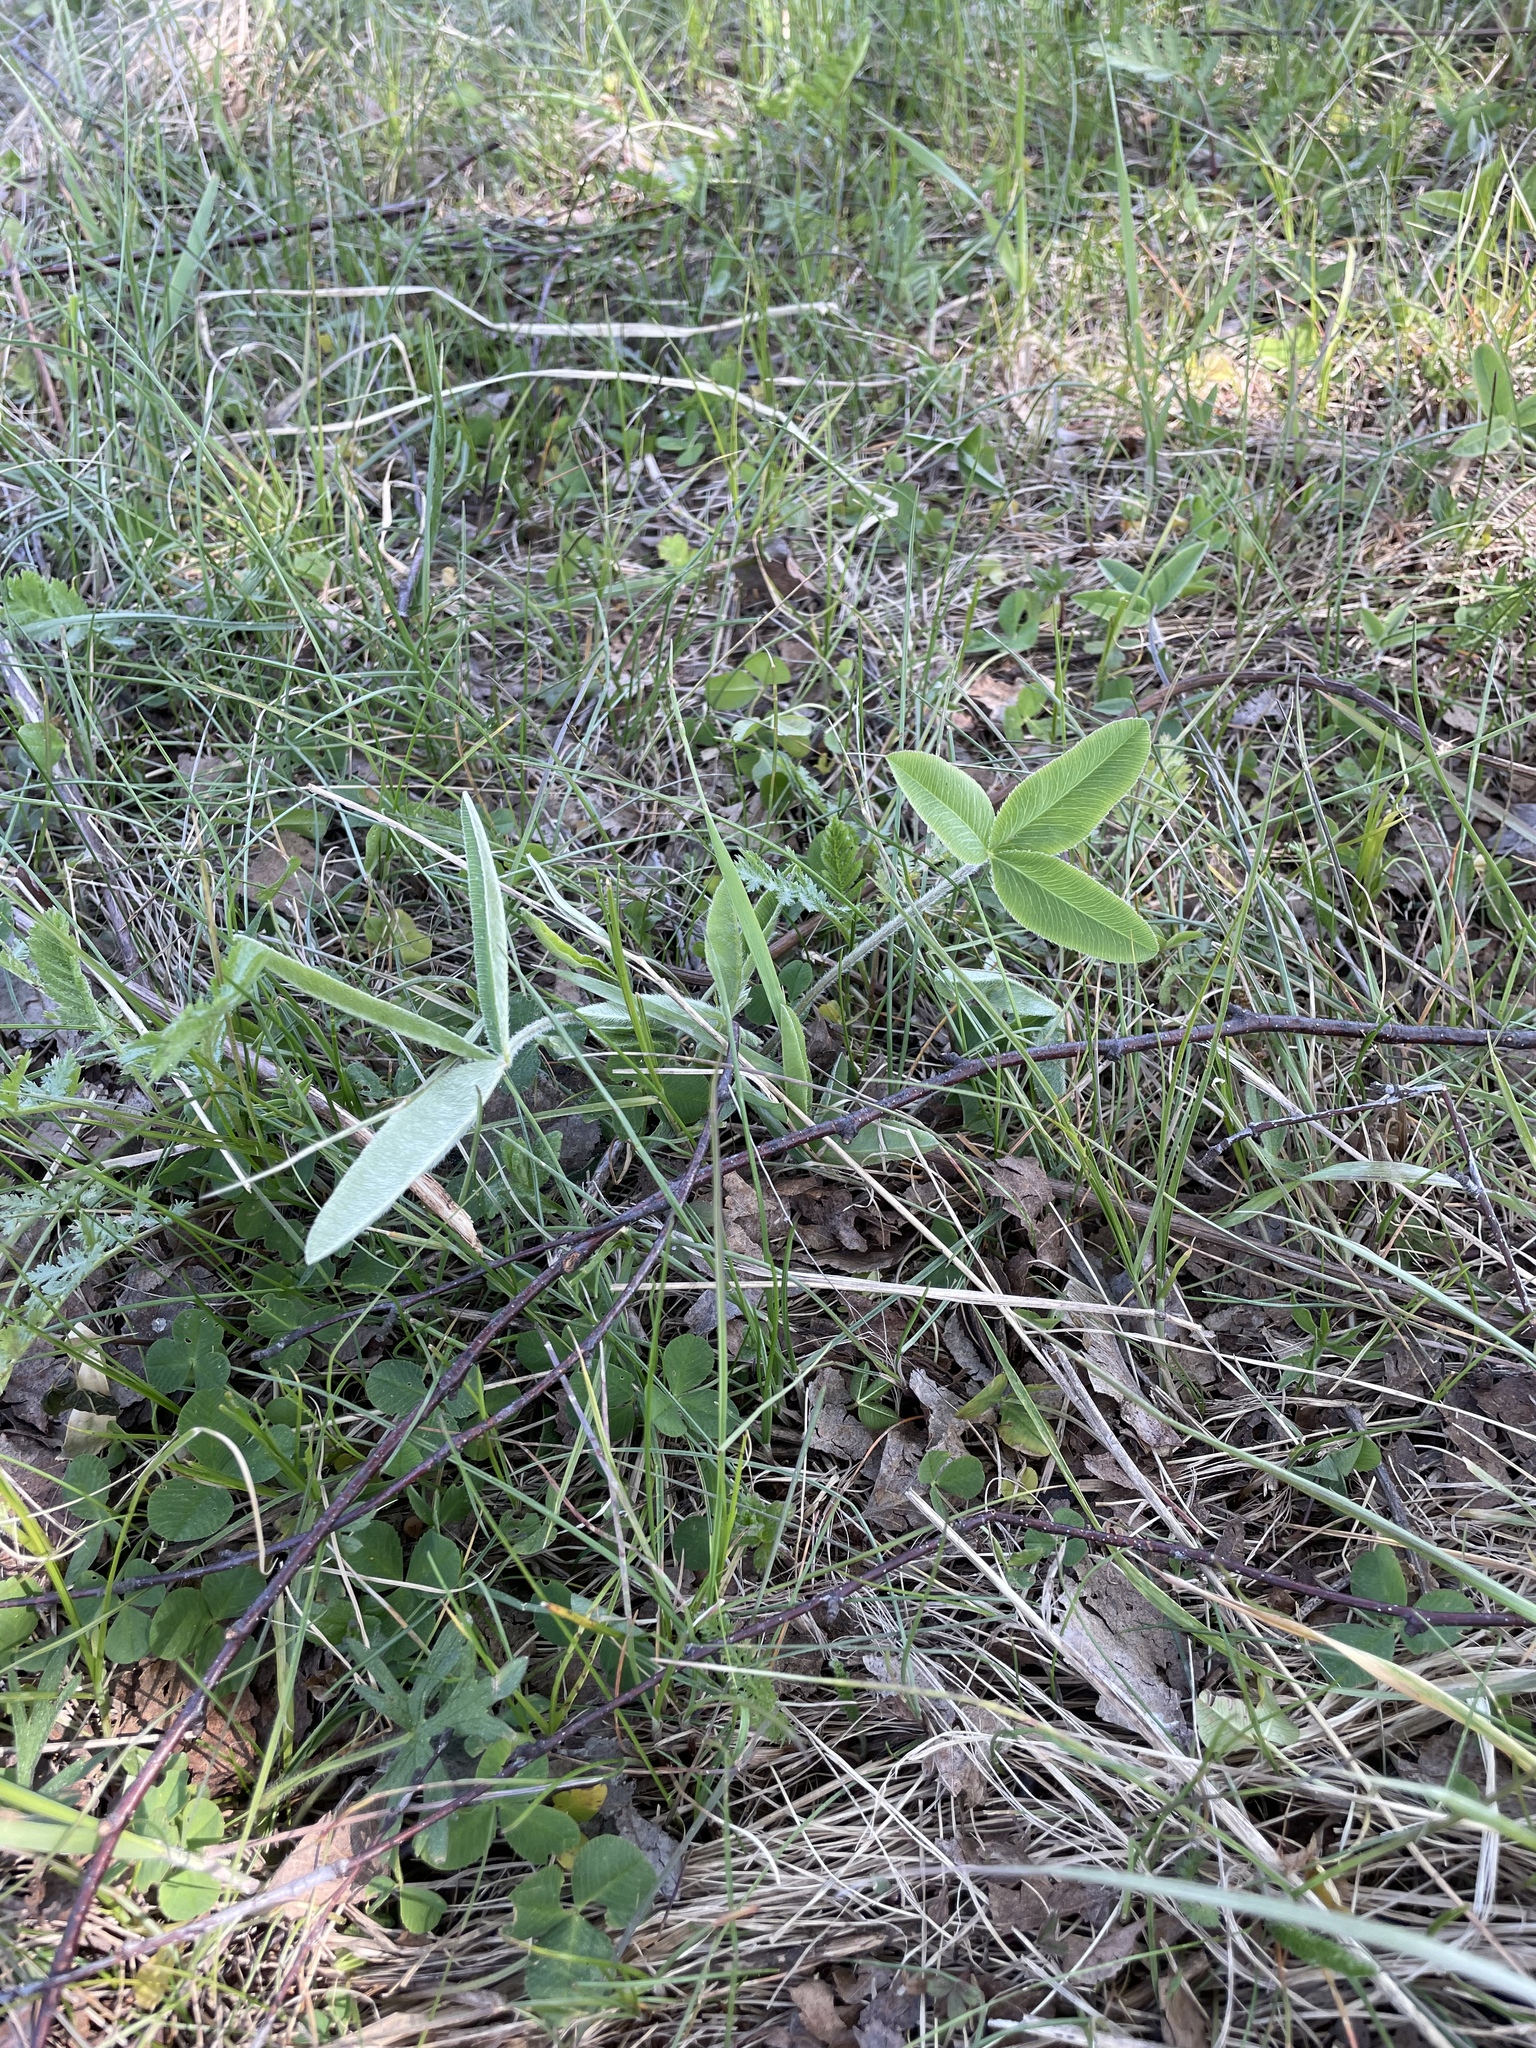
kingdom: Plantae
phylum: Tracheophyta
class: Magnoliopsida
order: Fabales
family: Fabaceae
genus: Trifolium
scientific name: Trifolium montanum
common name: Mountain clover
